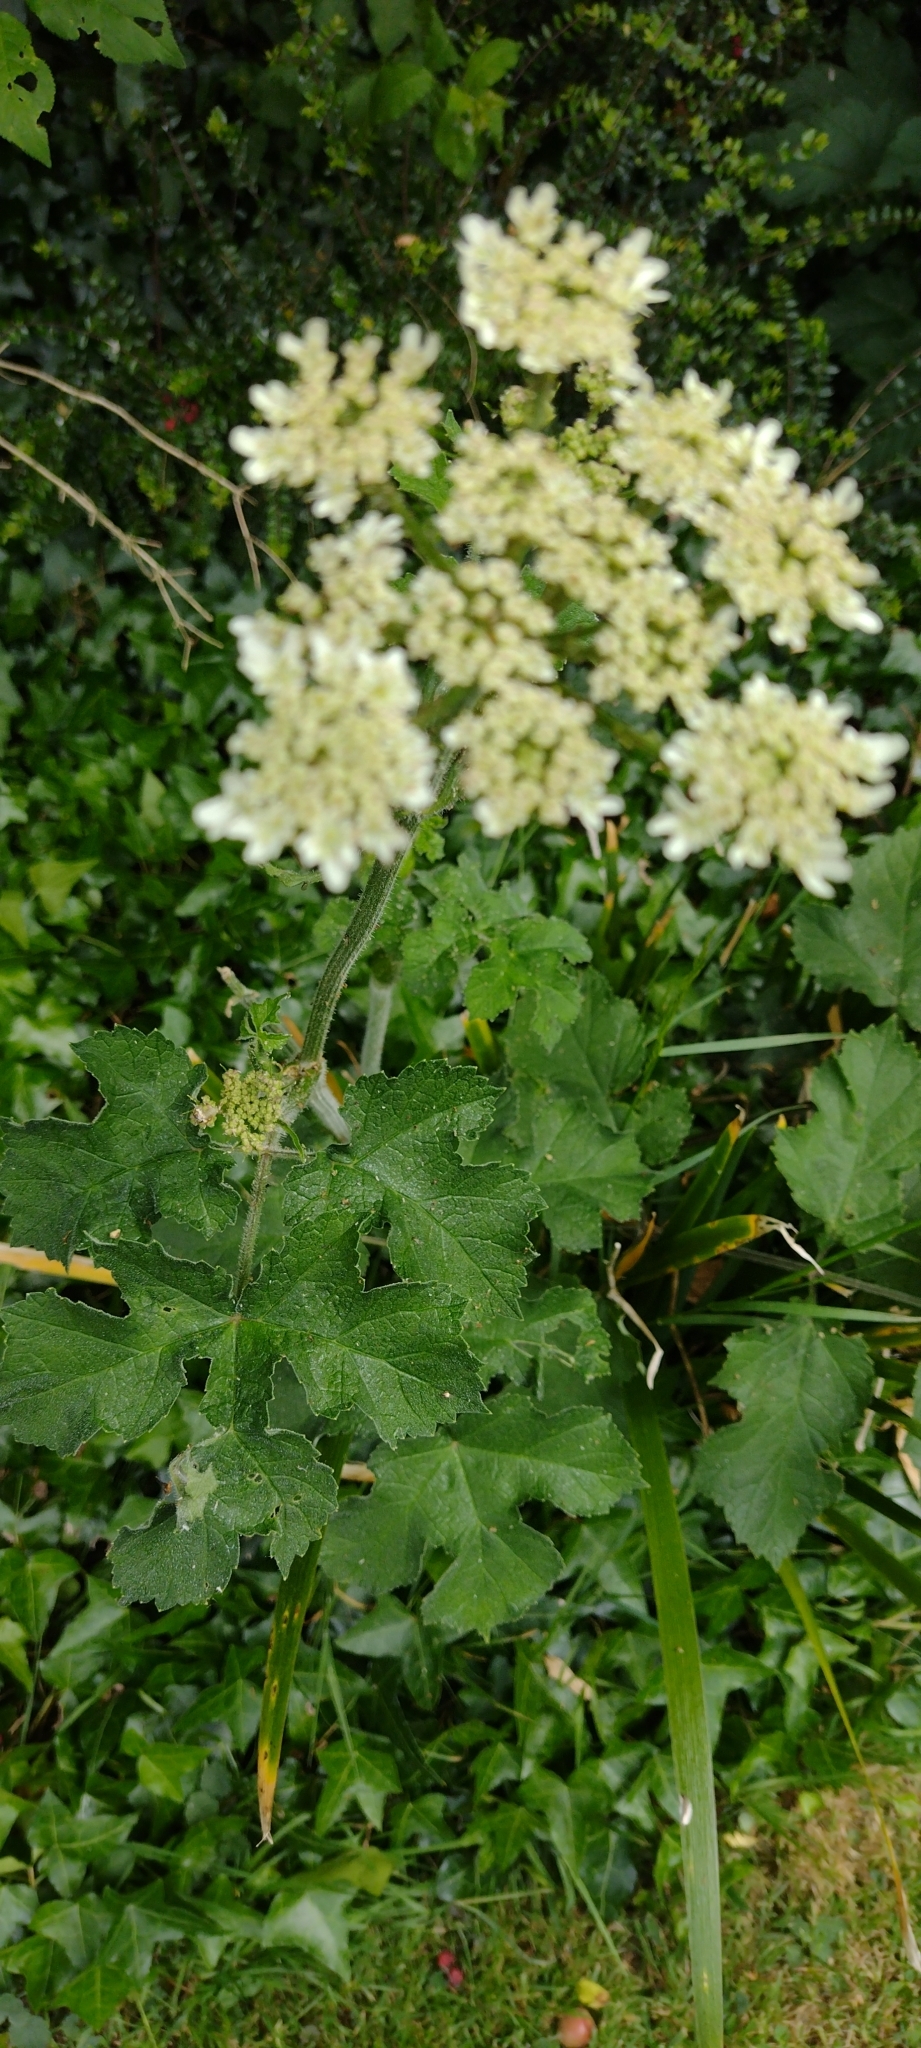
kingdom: Plantae
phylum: Tracheophyta
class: Magnoliopsida
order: Apiales
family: Apiaceae
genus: Heracleum
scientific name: Heracleum sphondylium
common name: Hogweed
